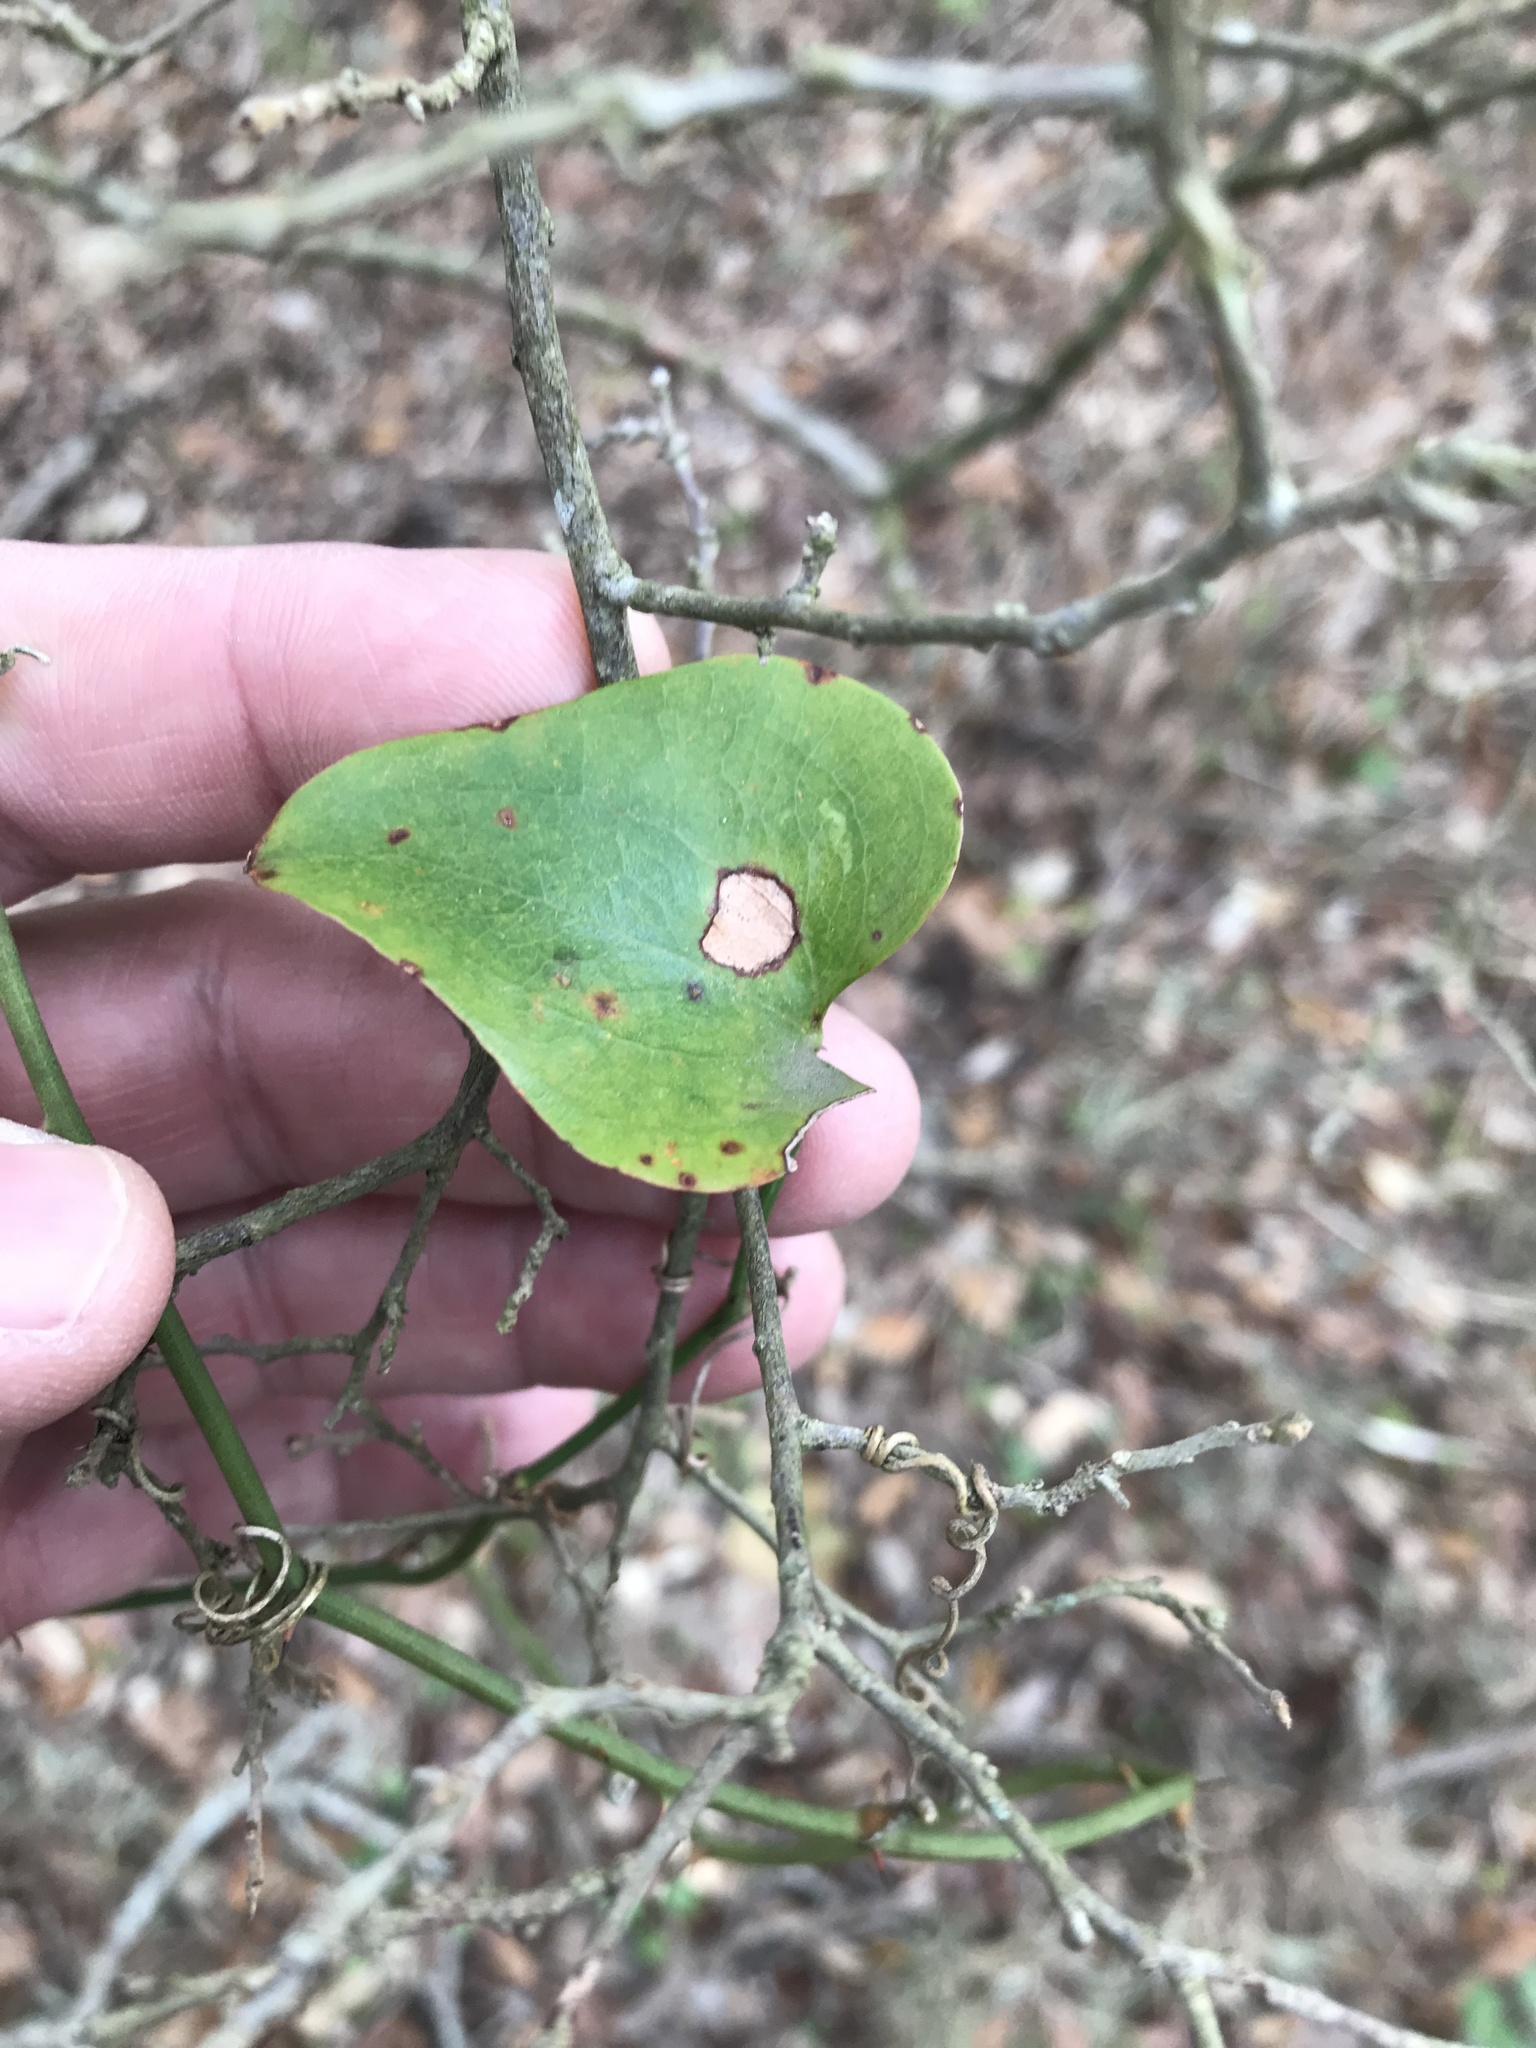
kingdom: Plantae
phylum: Tracheophyta
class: Liliopsida
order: Liliales
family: Smilacaceae
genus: Smilax
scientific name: Smilax bona-nox
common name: Catbrier
